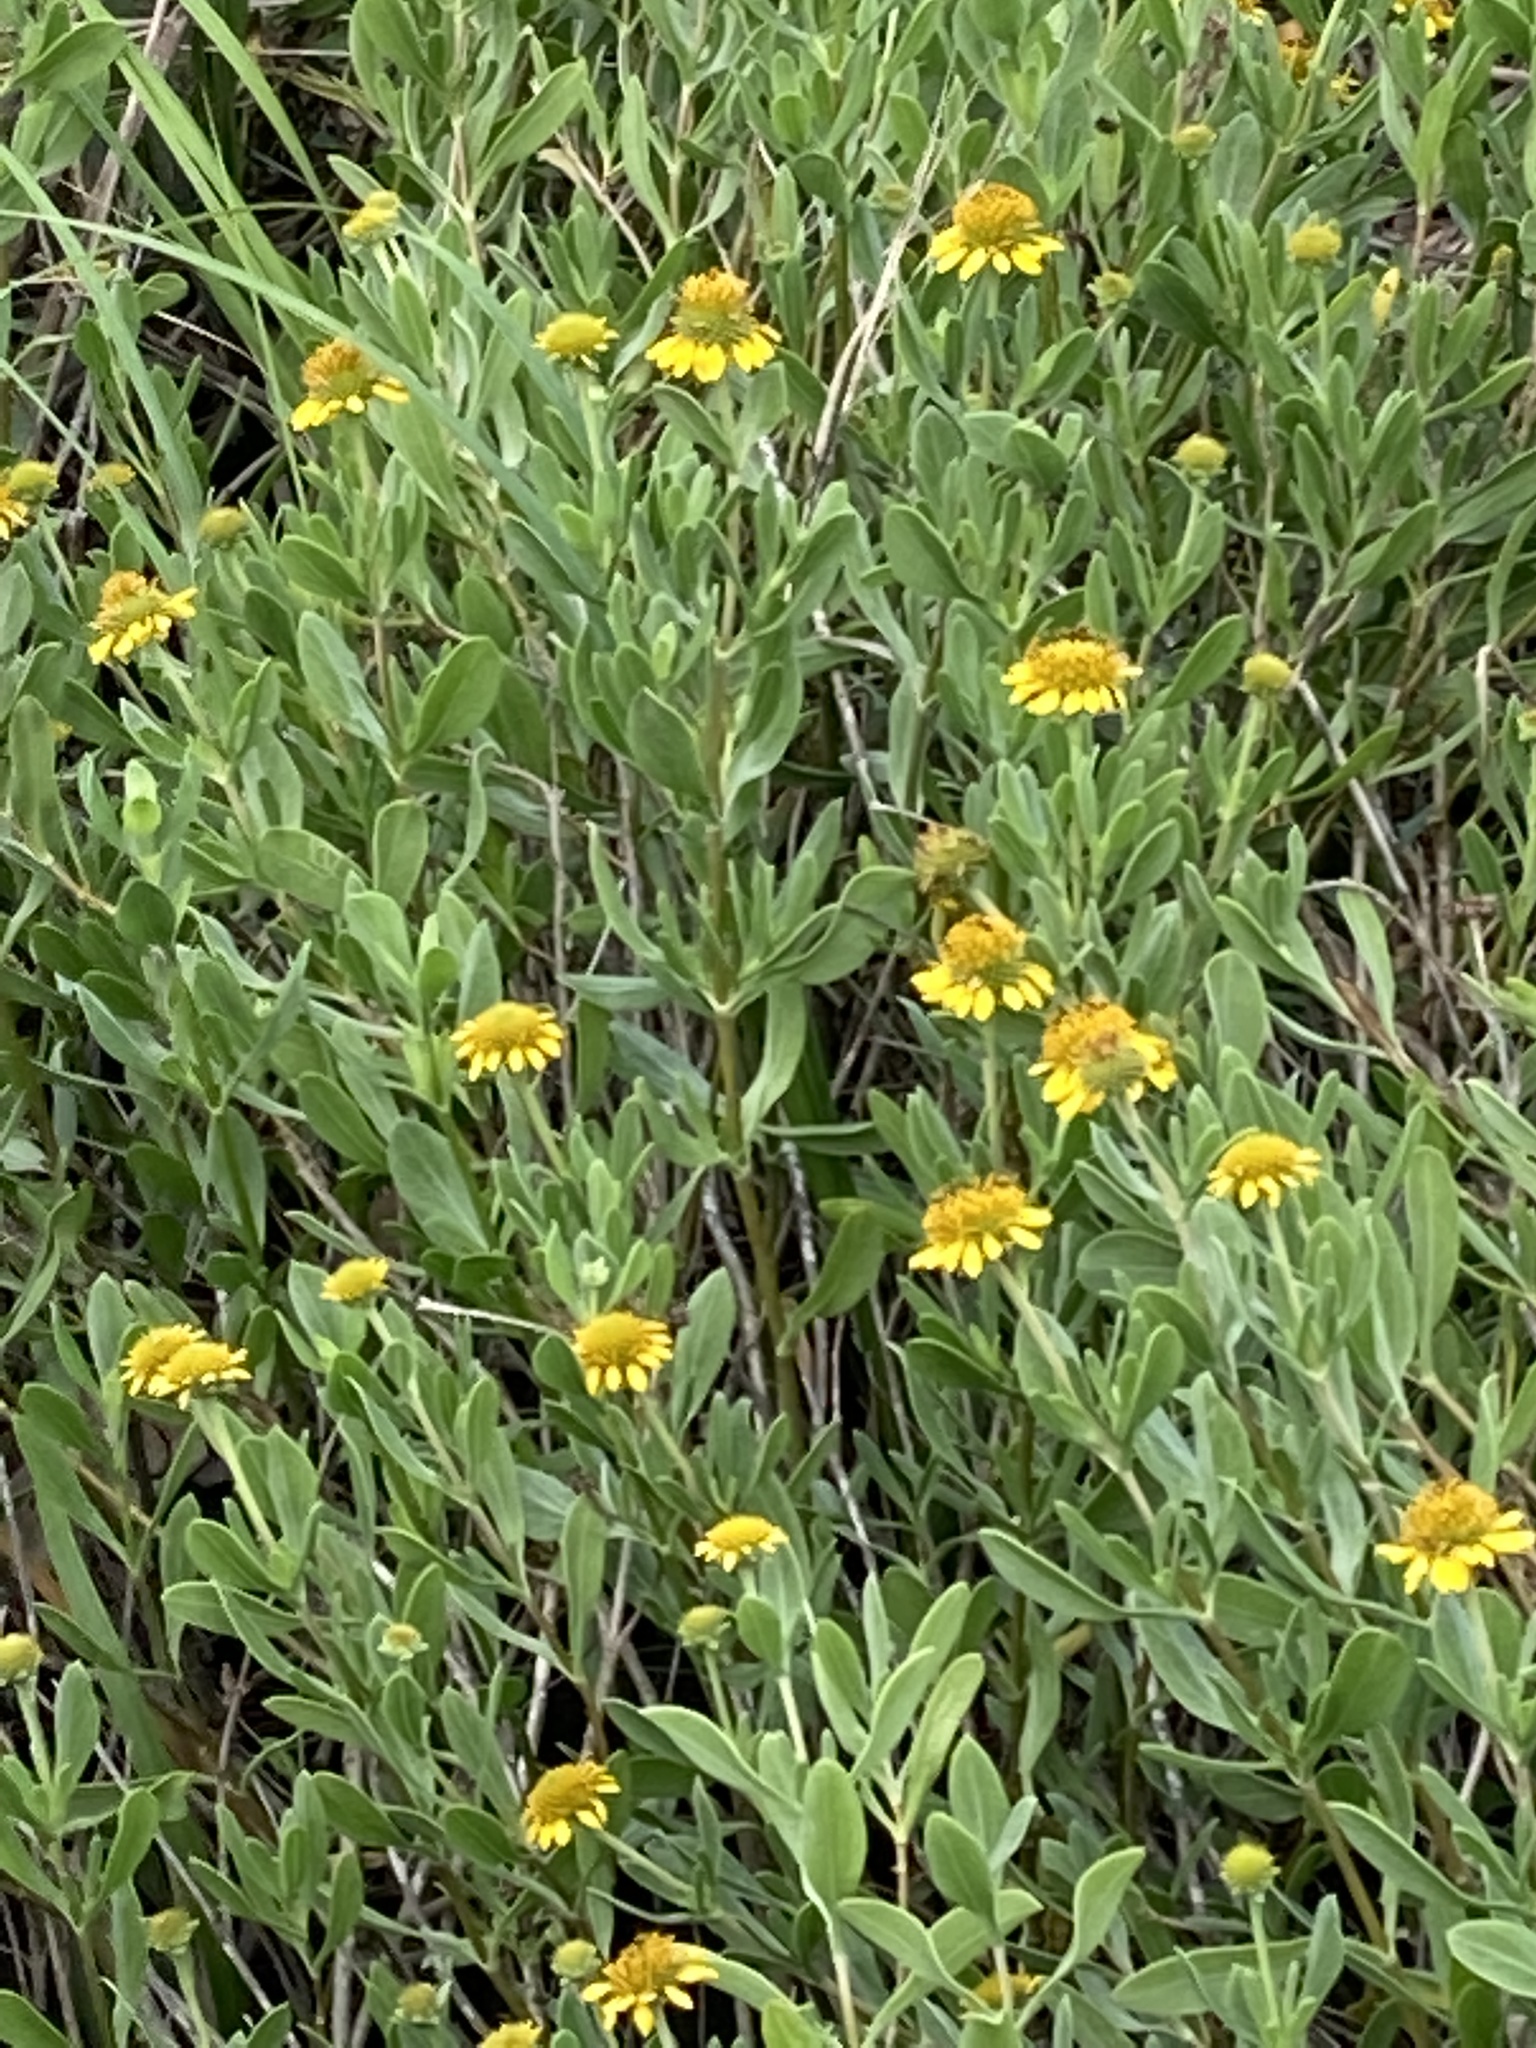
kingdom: Plantae
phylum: Tracheophyta
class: Magnoliopsida
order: Asterales
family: Asteraceae
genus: Borrichia
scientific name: Borrichia frutescens
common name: Sea oxeye
